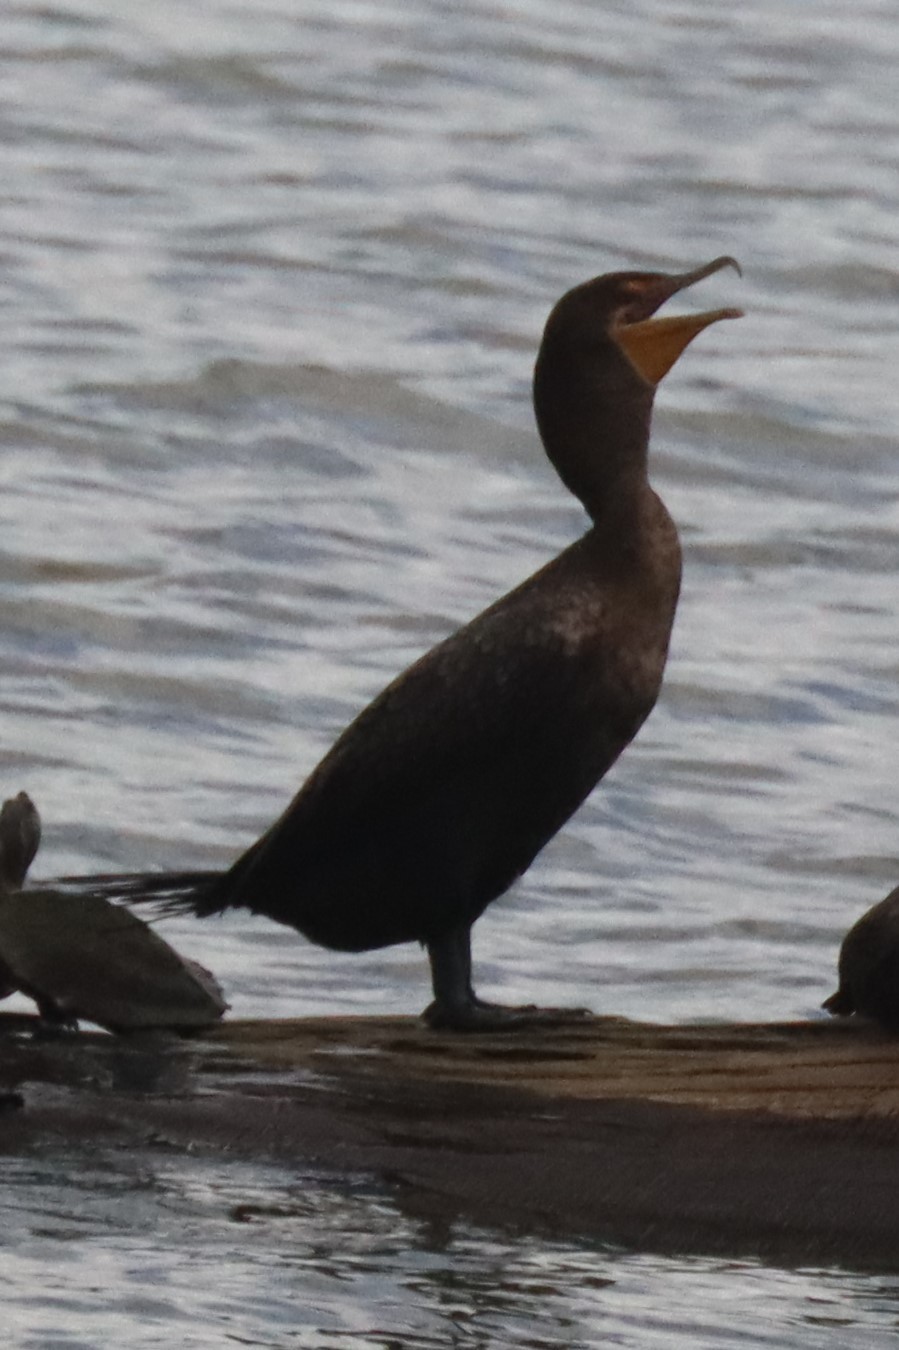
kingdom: Animalia
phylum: Chordata
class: Aves
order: Suliformes
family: Phalacrocoracidae
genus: Phalacrocorax
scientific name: Phalacrocorax auritus
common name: Double-crested cormorant
